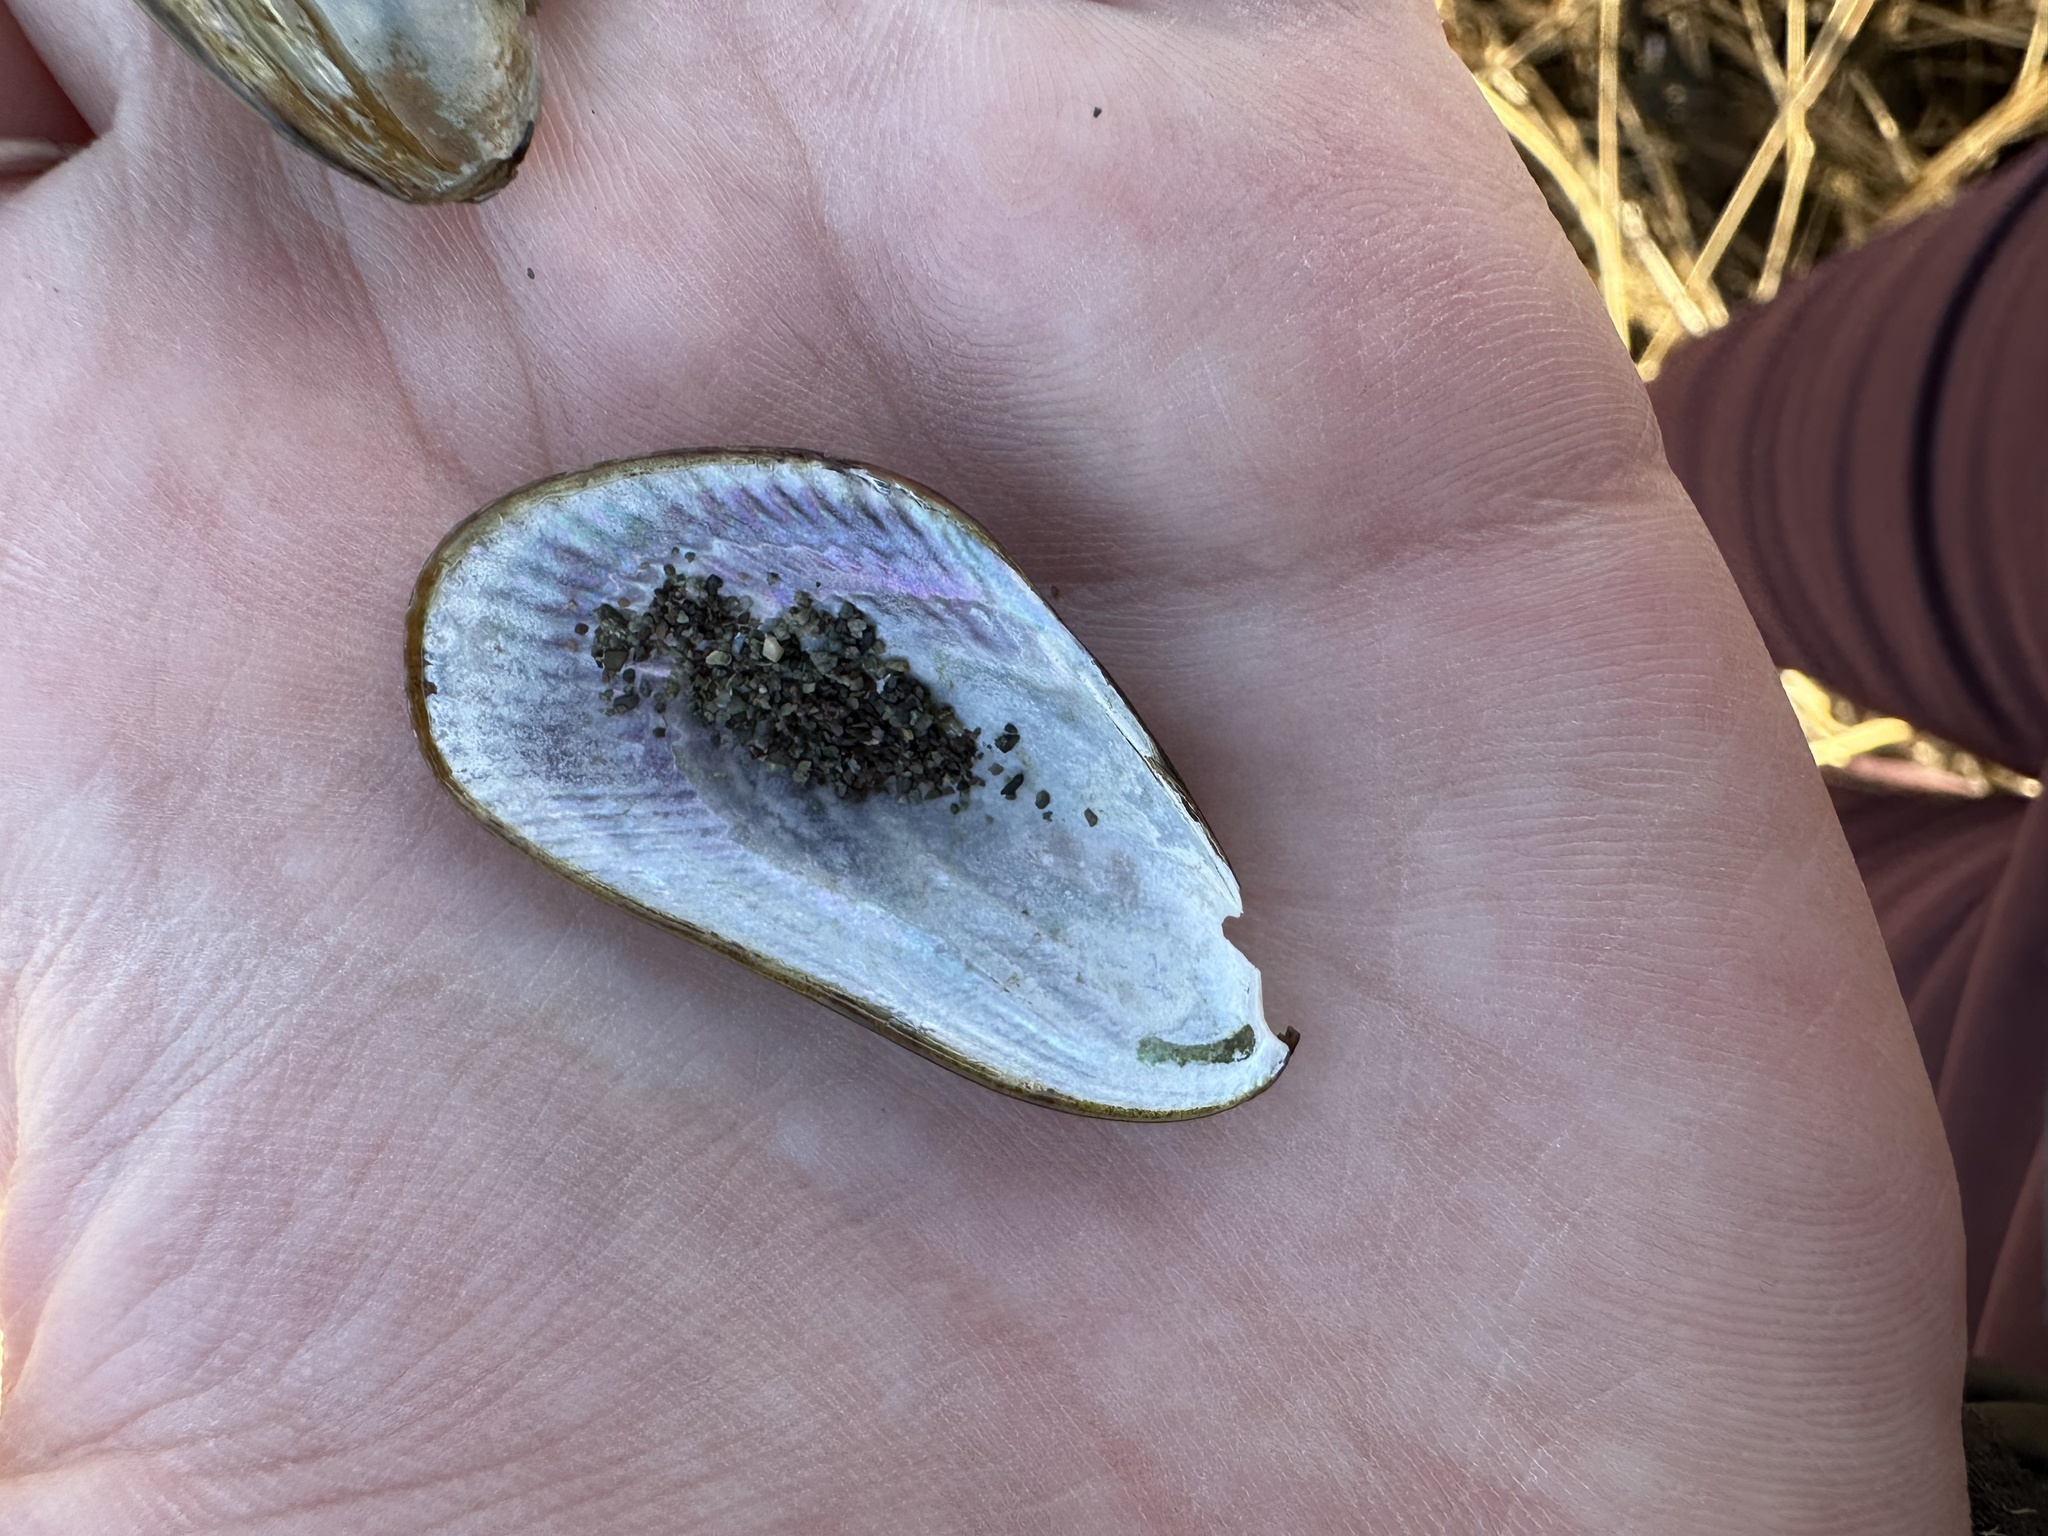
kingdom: Animalia
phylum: Mollusca
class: Bivalvia
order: Mytilida
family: Mytilidae
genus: Geukensia
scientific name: Geukensia demissa
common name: Ribbed mussel
